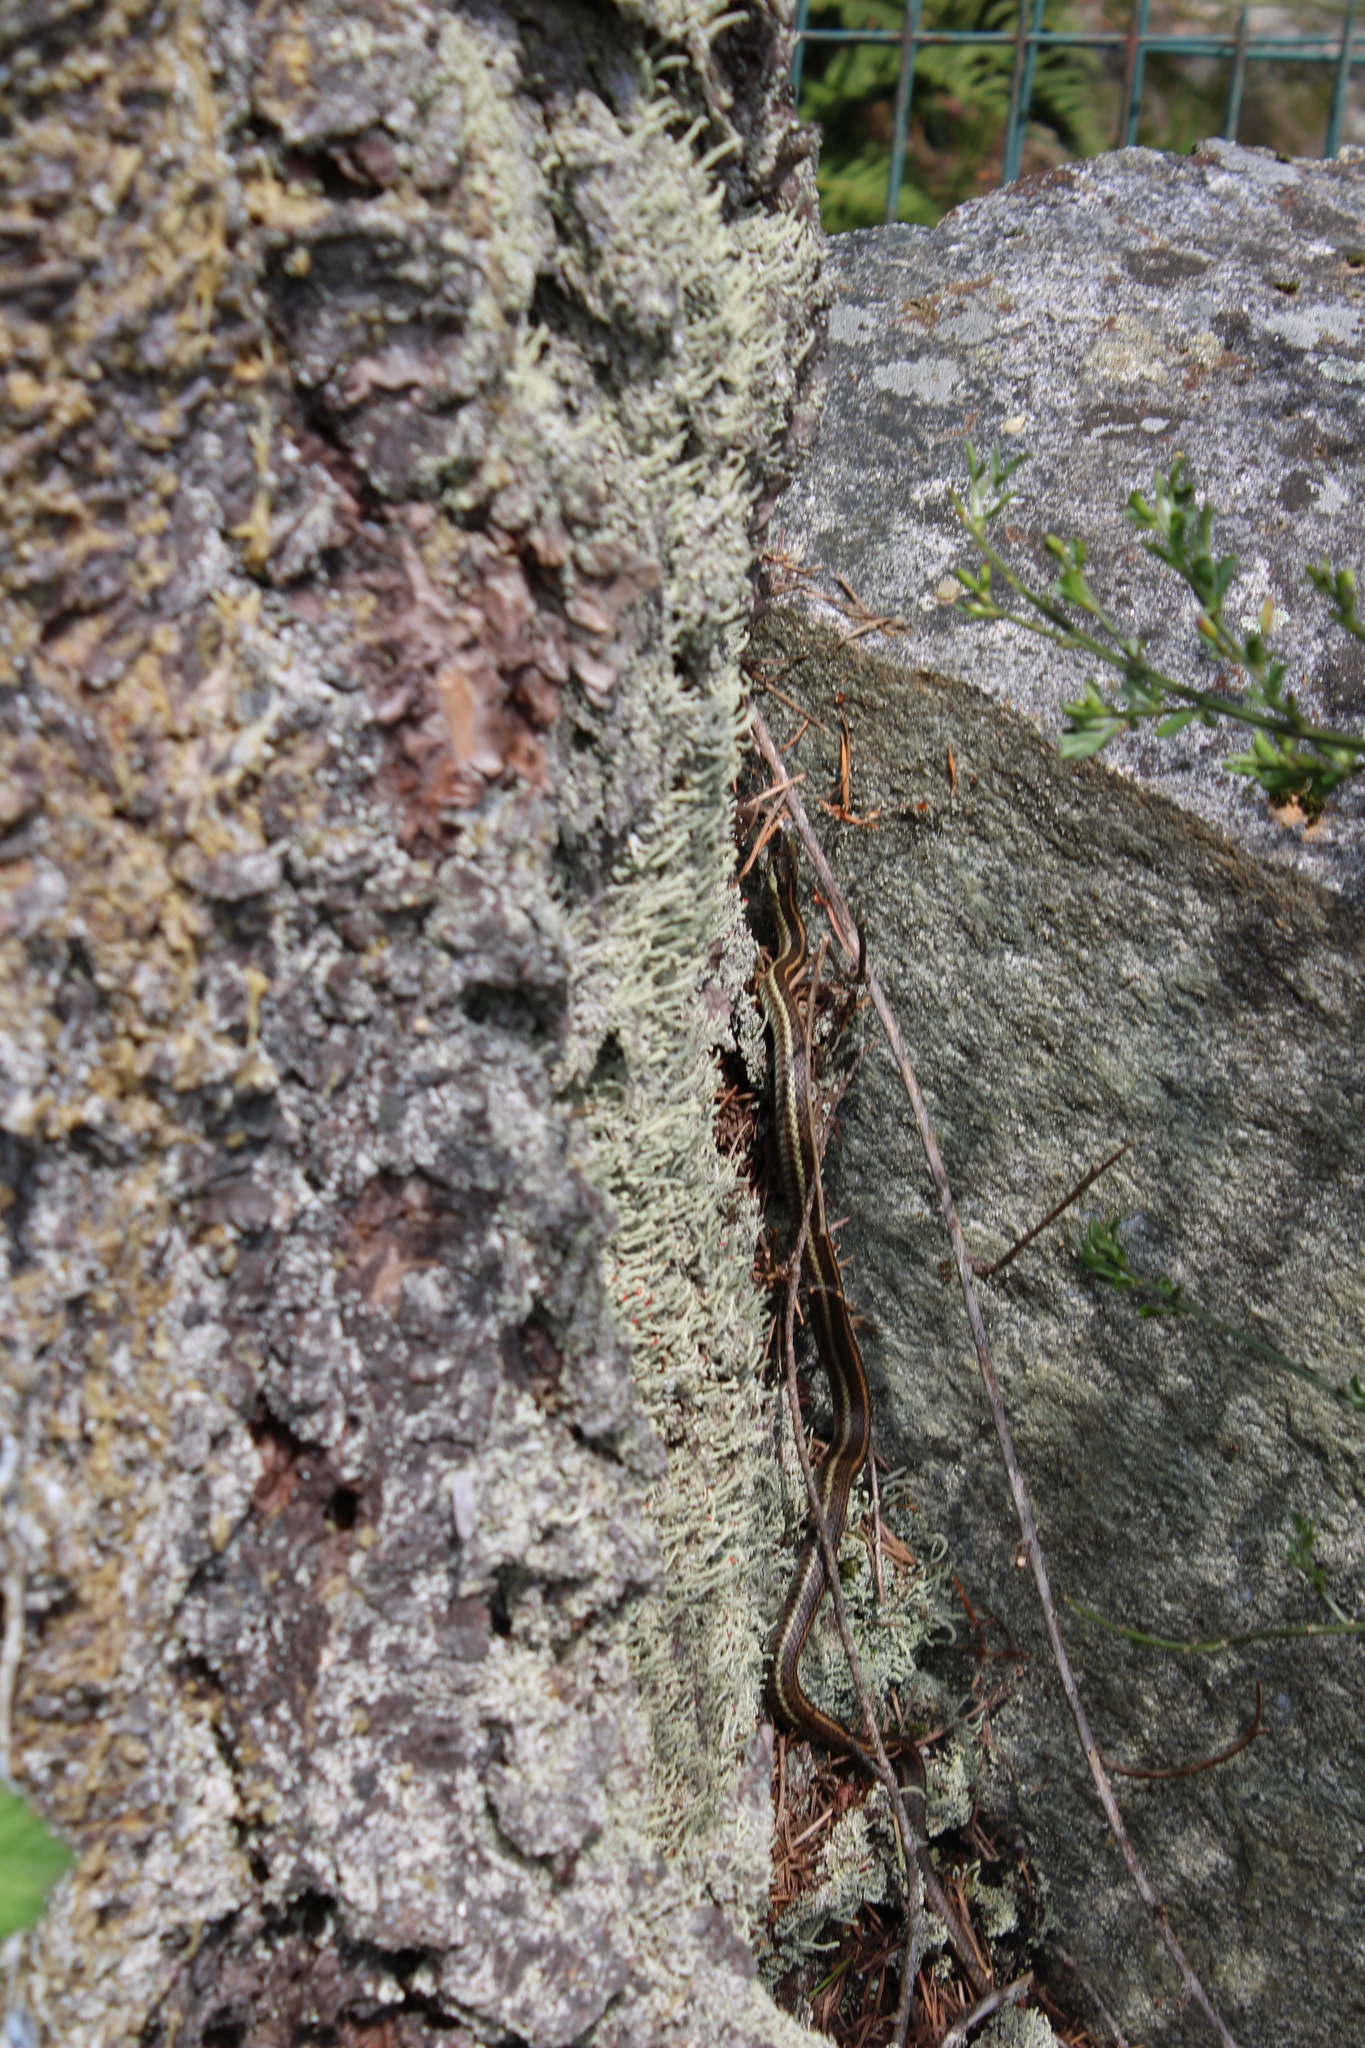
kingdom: Animalia
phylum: Chordata
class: Squamata
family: Colubridae
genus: Thamnophis
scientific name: Thamnophis ordinoides
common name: Northwestern garter snake
